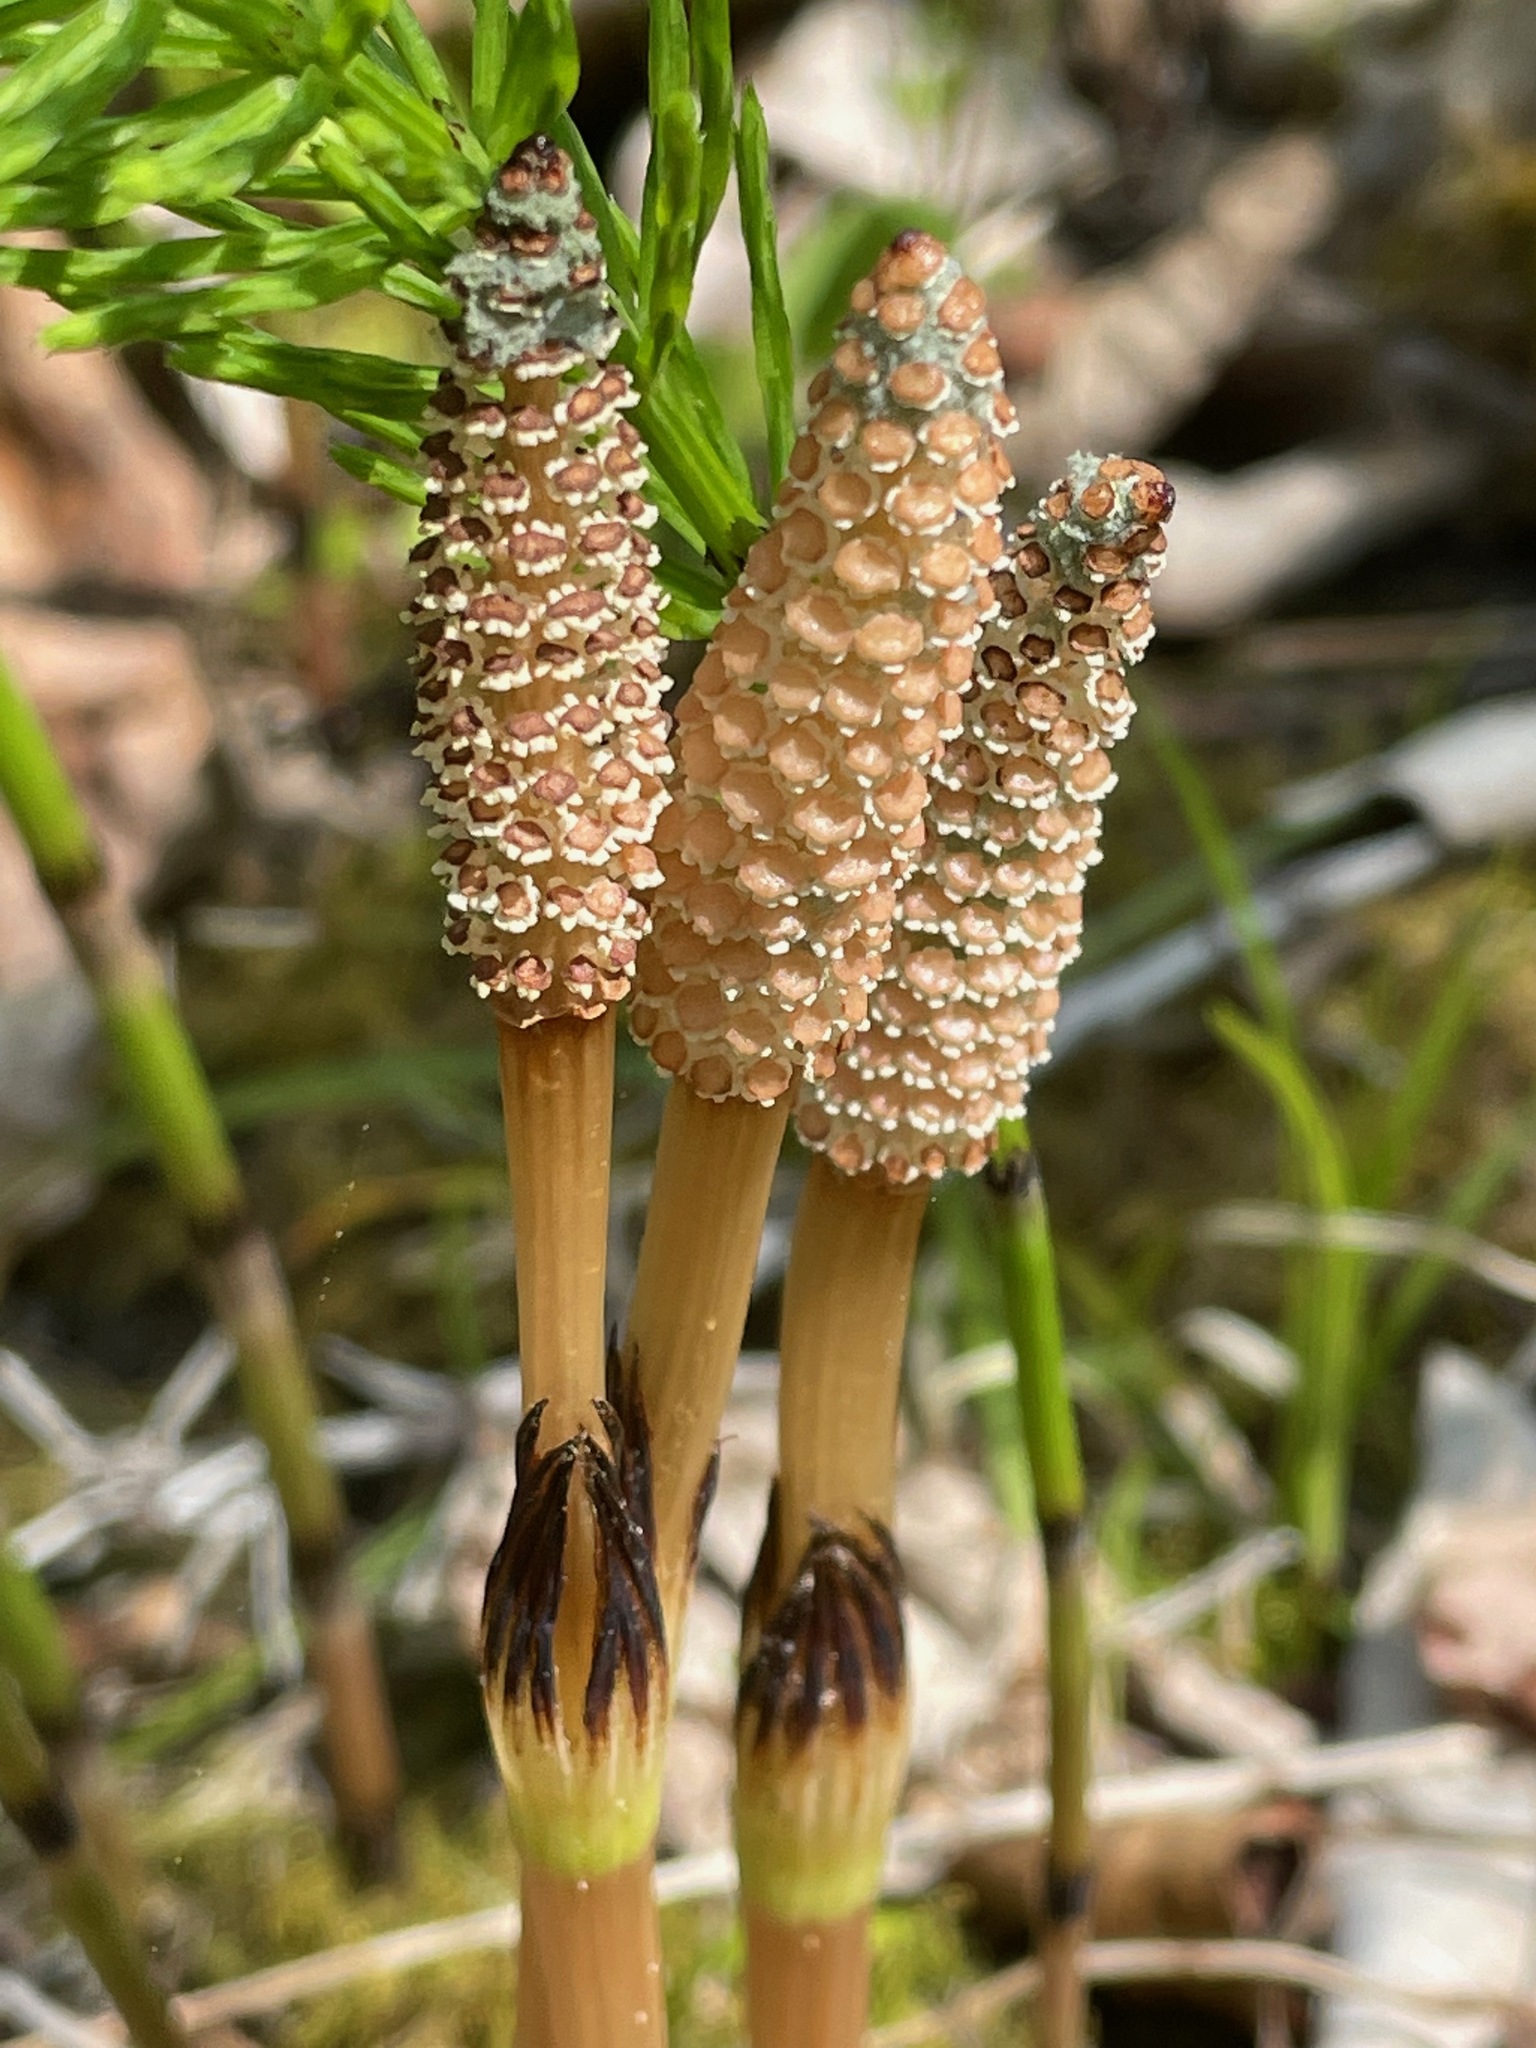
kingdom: Plantae
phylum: Tracheophyta
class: Polypodiopsida
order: Equisetales
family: Equisetaceae
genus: Equisetum
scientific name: Equisetum arvense
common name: Field horsetail
